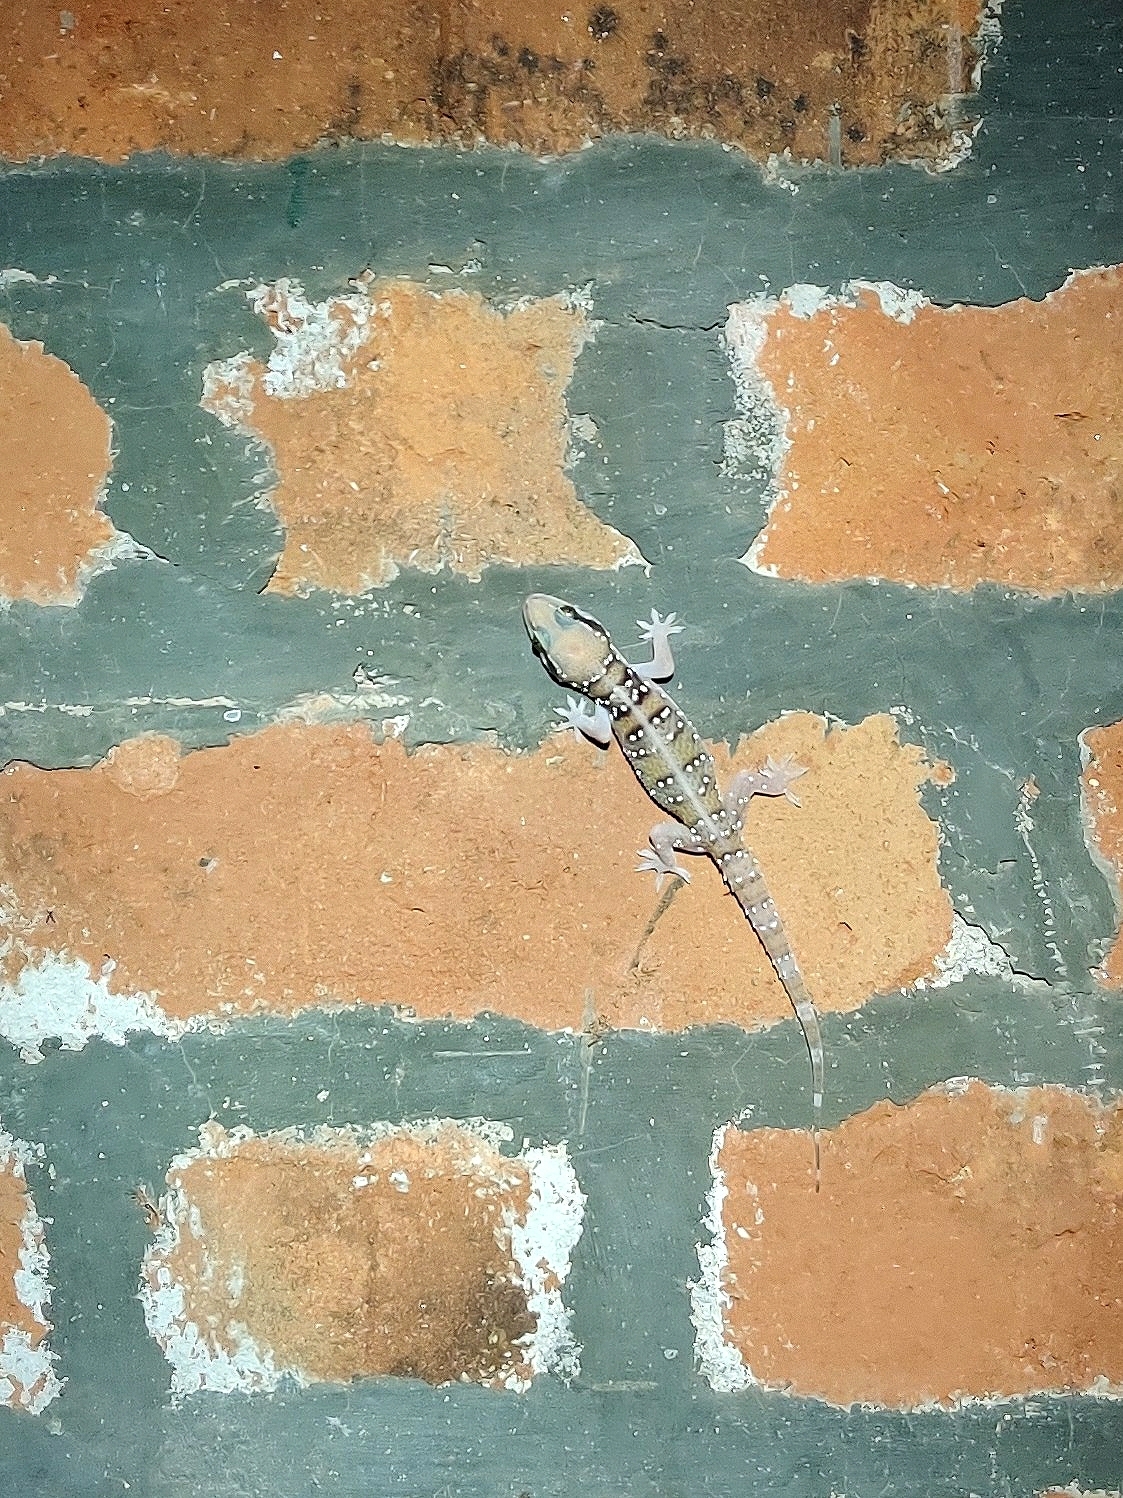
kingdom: Animalia
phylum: Chordata
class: Squamata
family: Gekkonidae
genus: Hemidactylus
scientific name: Hemidactylus whitakeri
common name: Whitaker’s termite hill gecko
